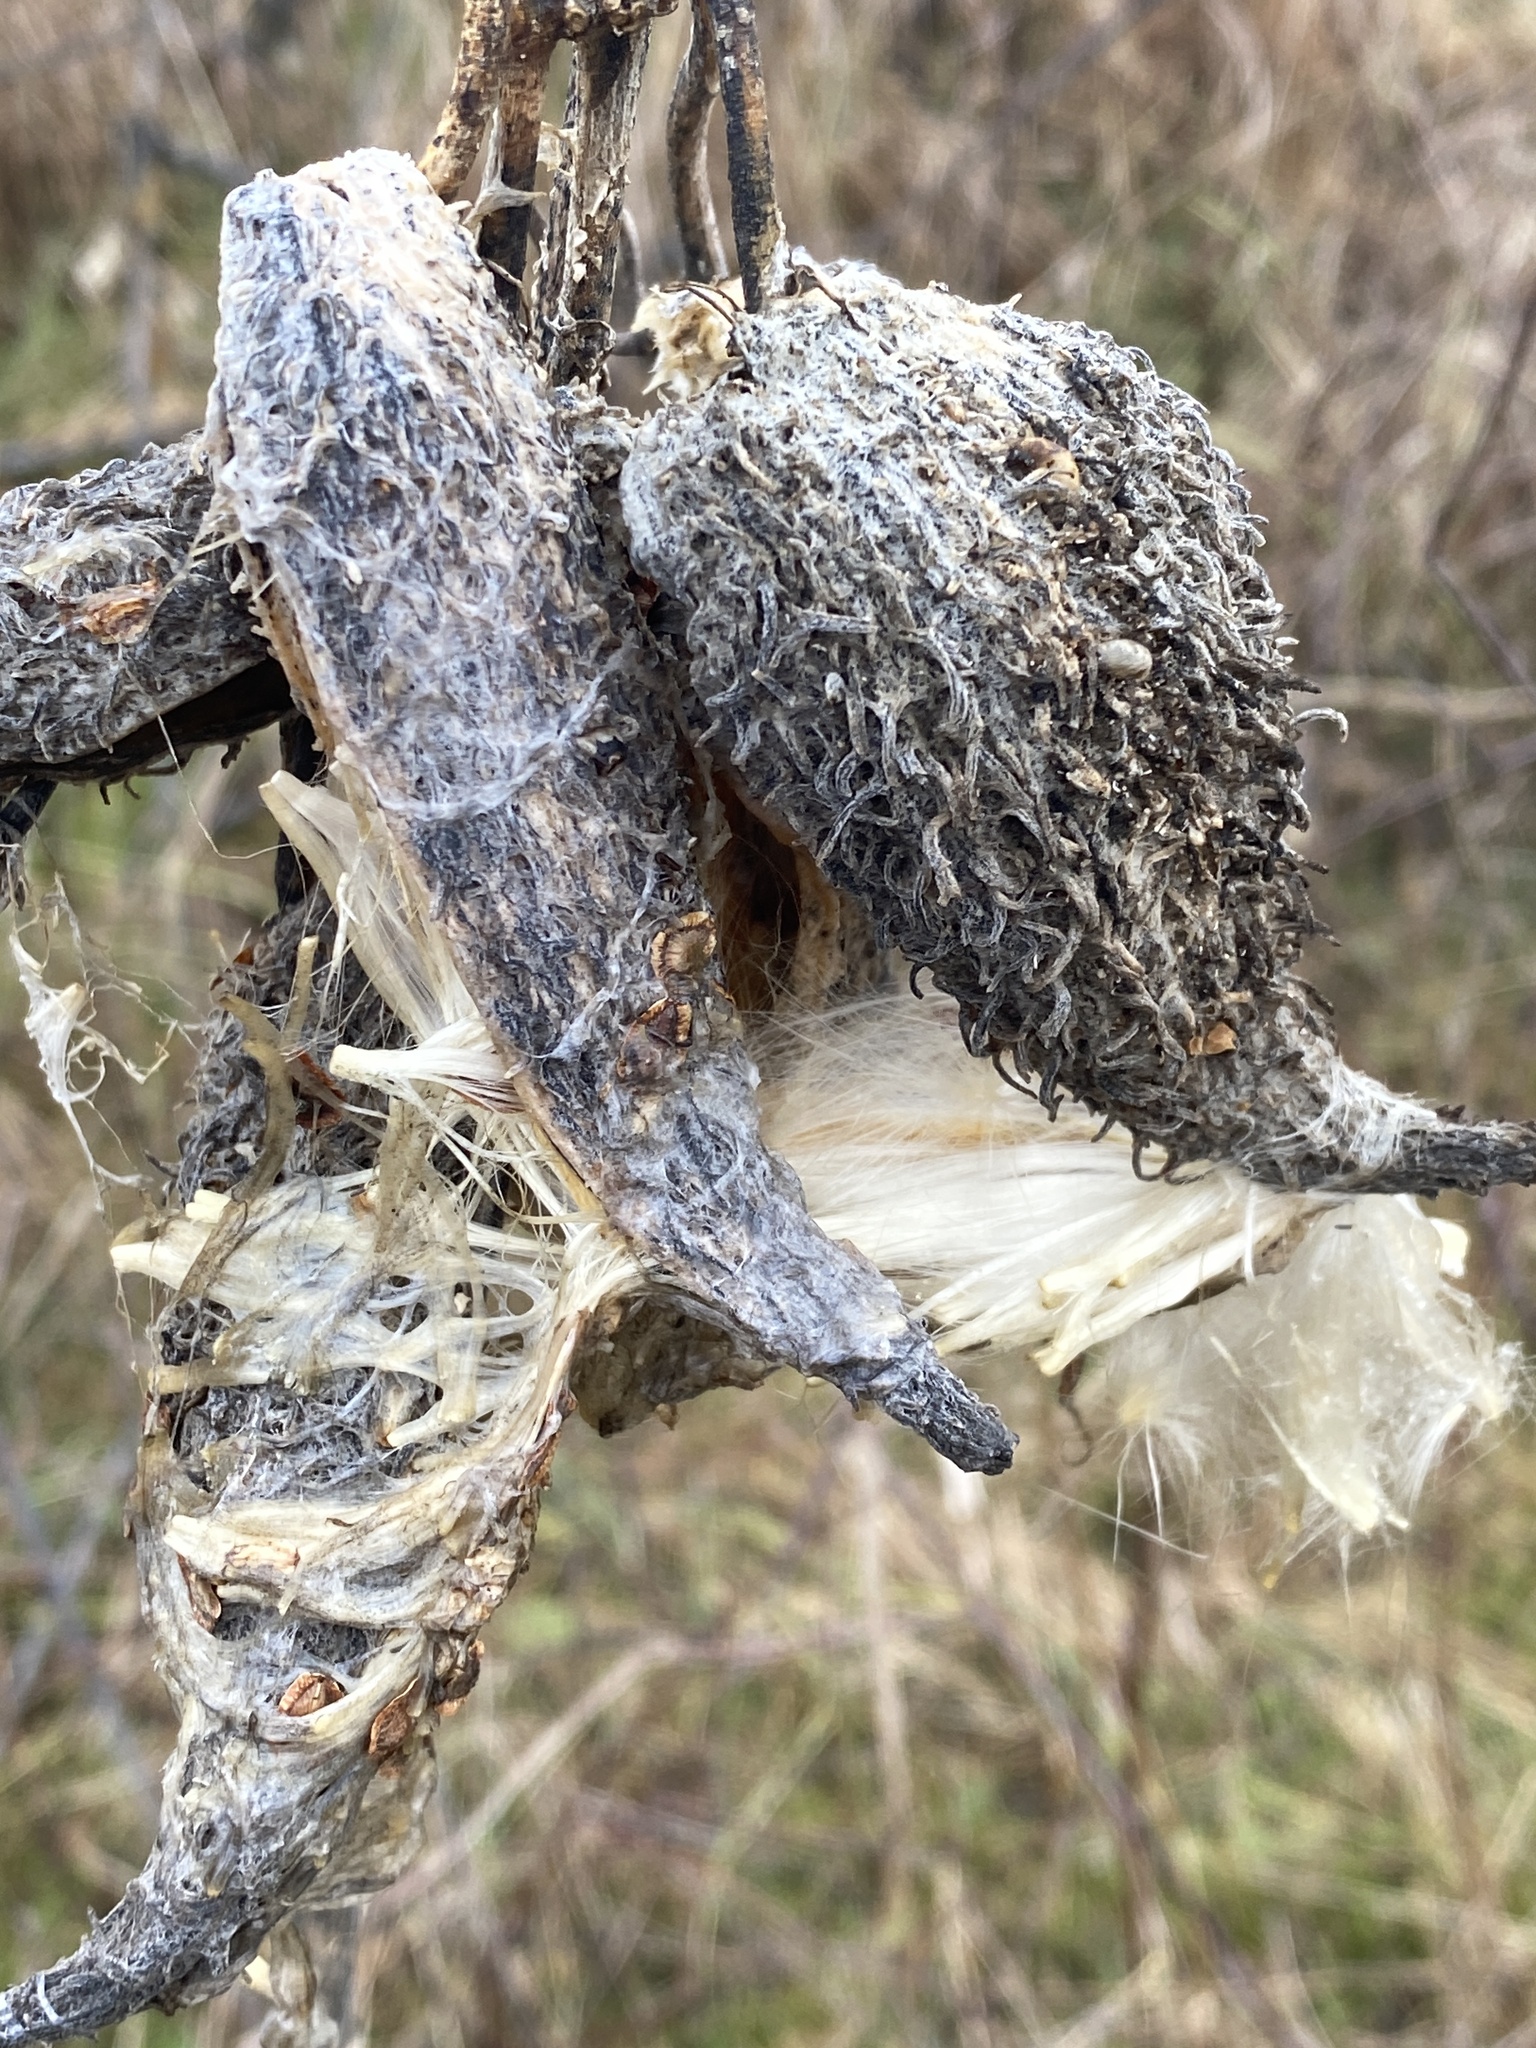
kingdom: Plantae
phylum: Tracheophyta
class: Magnoliopsida
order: Gentianales
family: Apocynaceae
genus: Asclepias
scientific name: Asclepias syriaca
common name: Common milkweed
